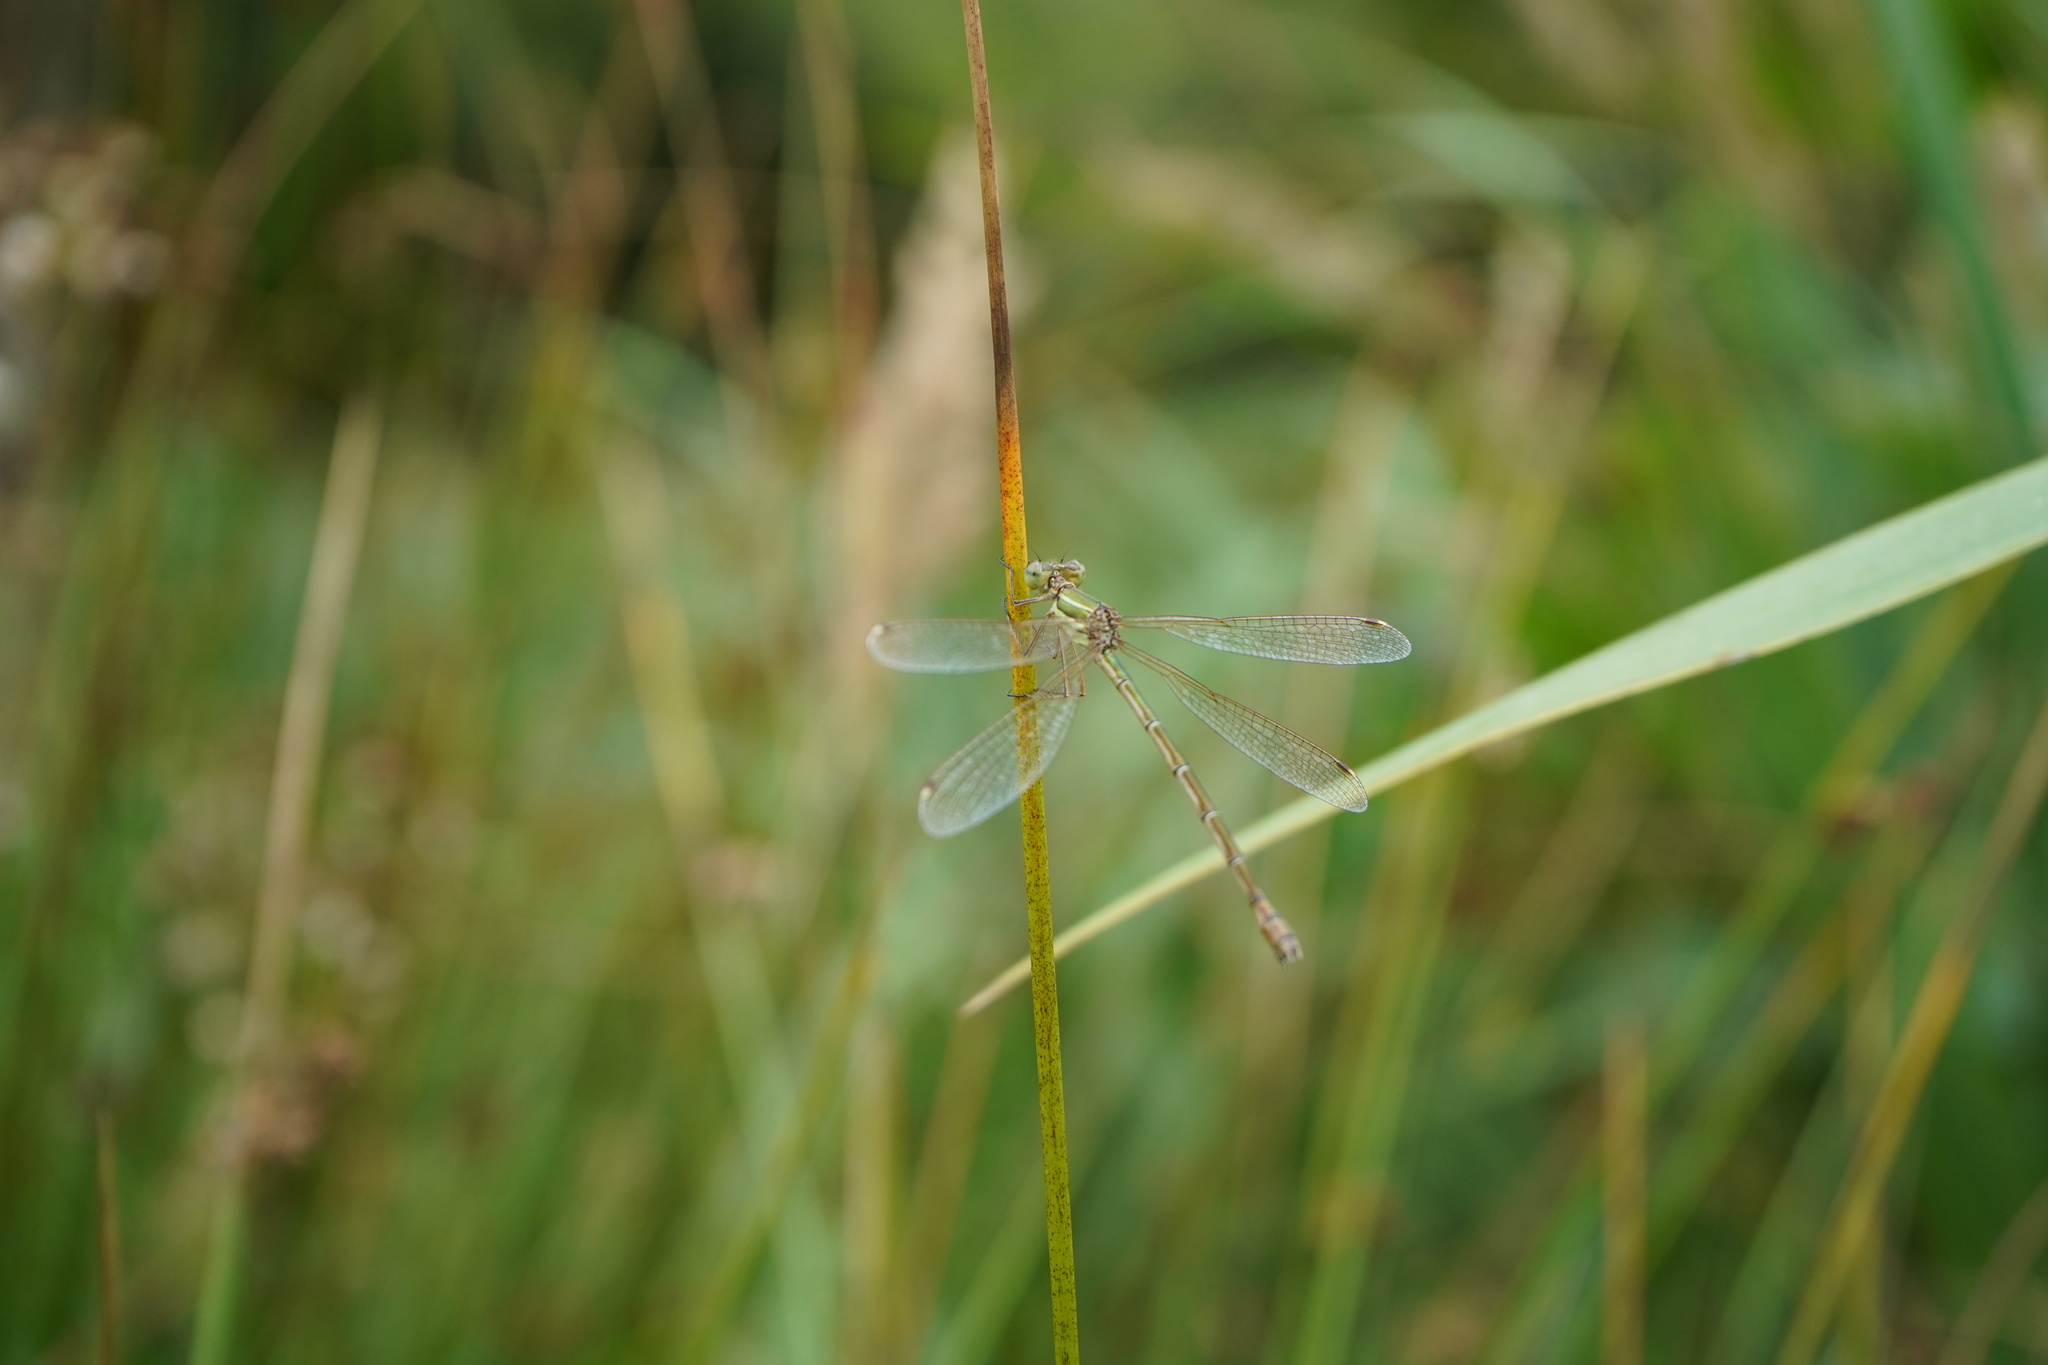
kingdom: Animalia
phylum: Arthropoda
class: Insecta
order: Odonata
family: Lestidae
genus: Lestes
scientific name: Lestes barbarus
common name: Migrant spreadwing
